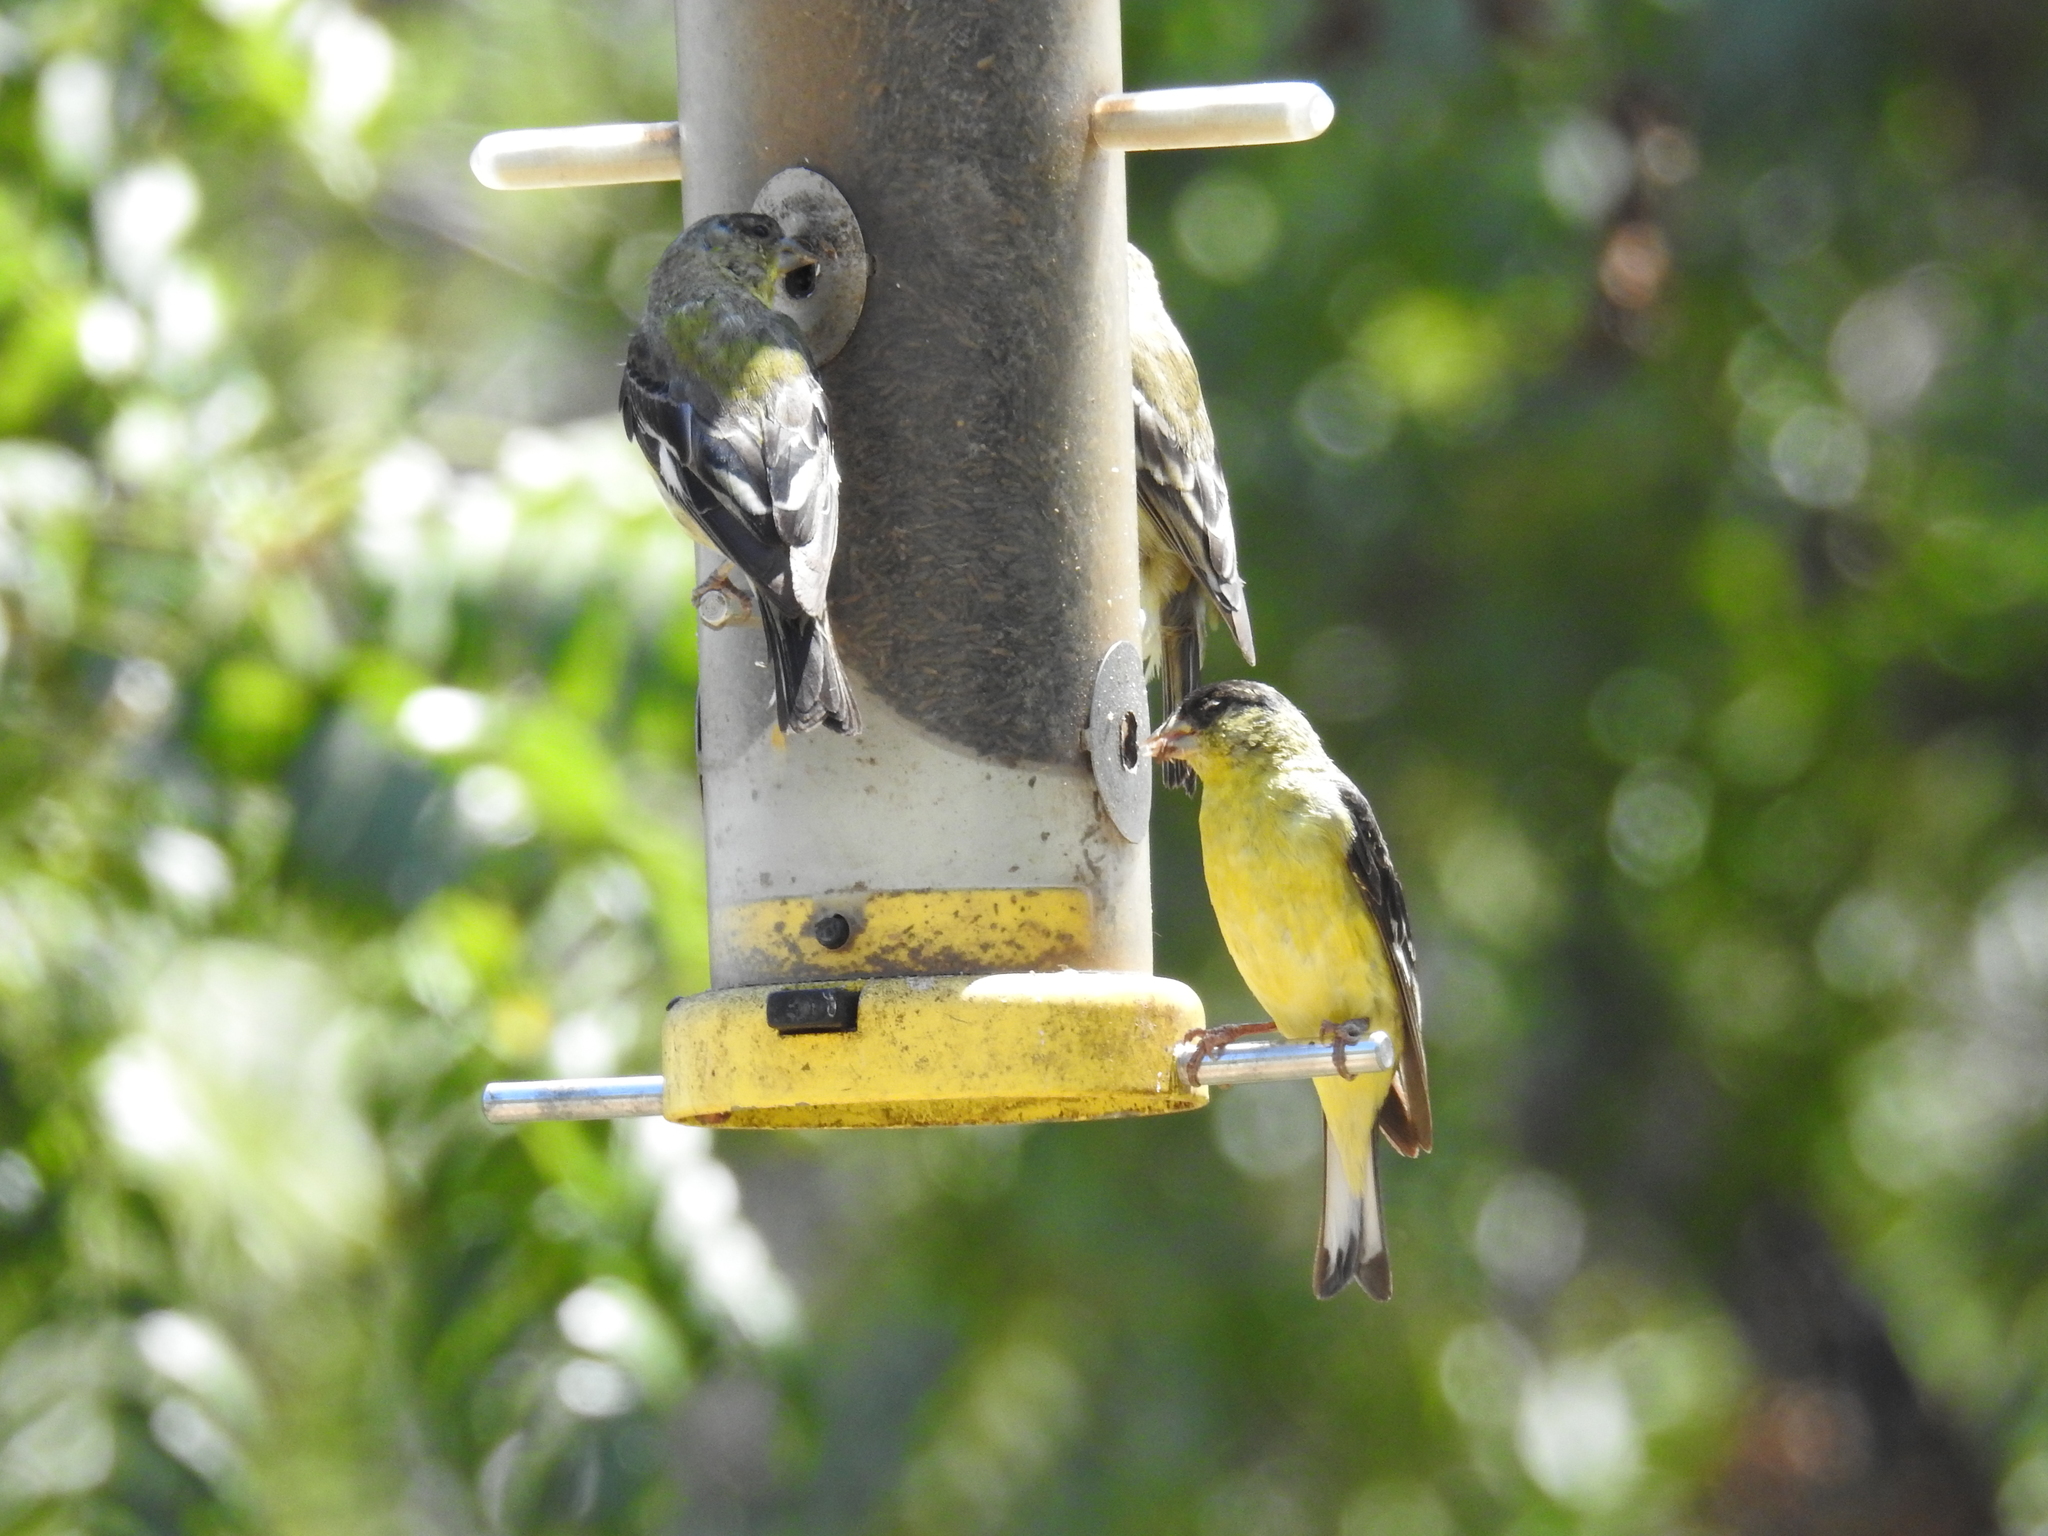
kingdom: Animalia
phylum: Chordata
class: Aves
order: Passeriformes
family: Fringillidae
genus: Spinus
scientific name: Spinus psaltria
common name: Lesser goldfinch
